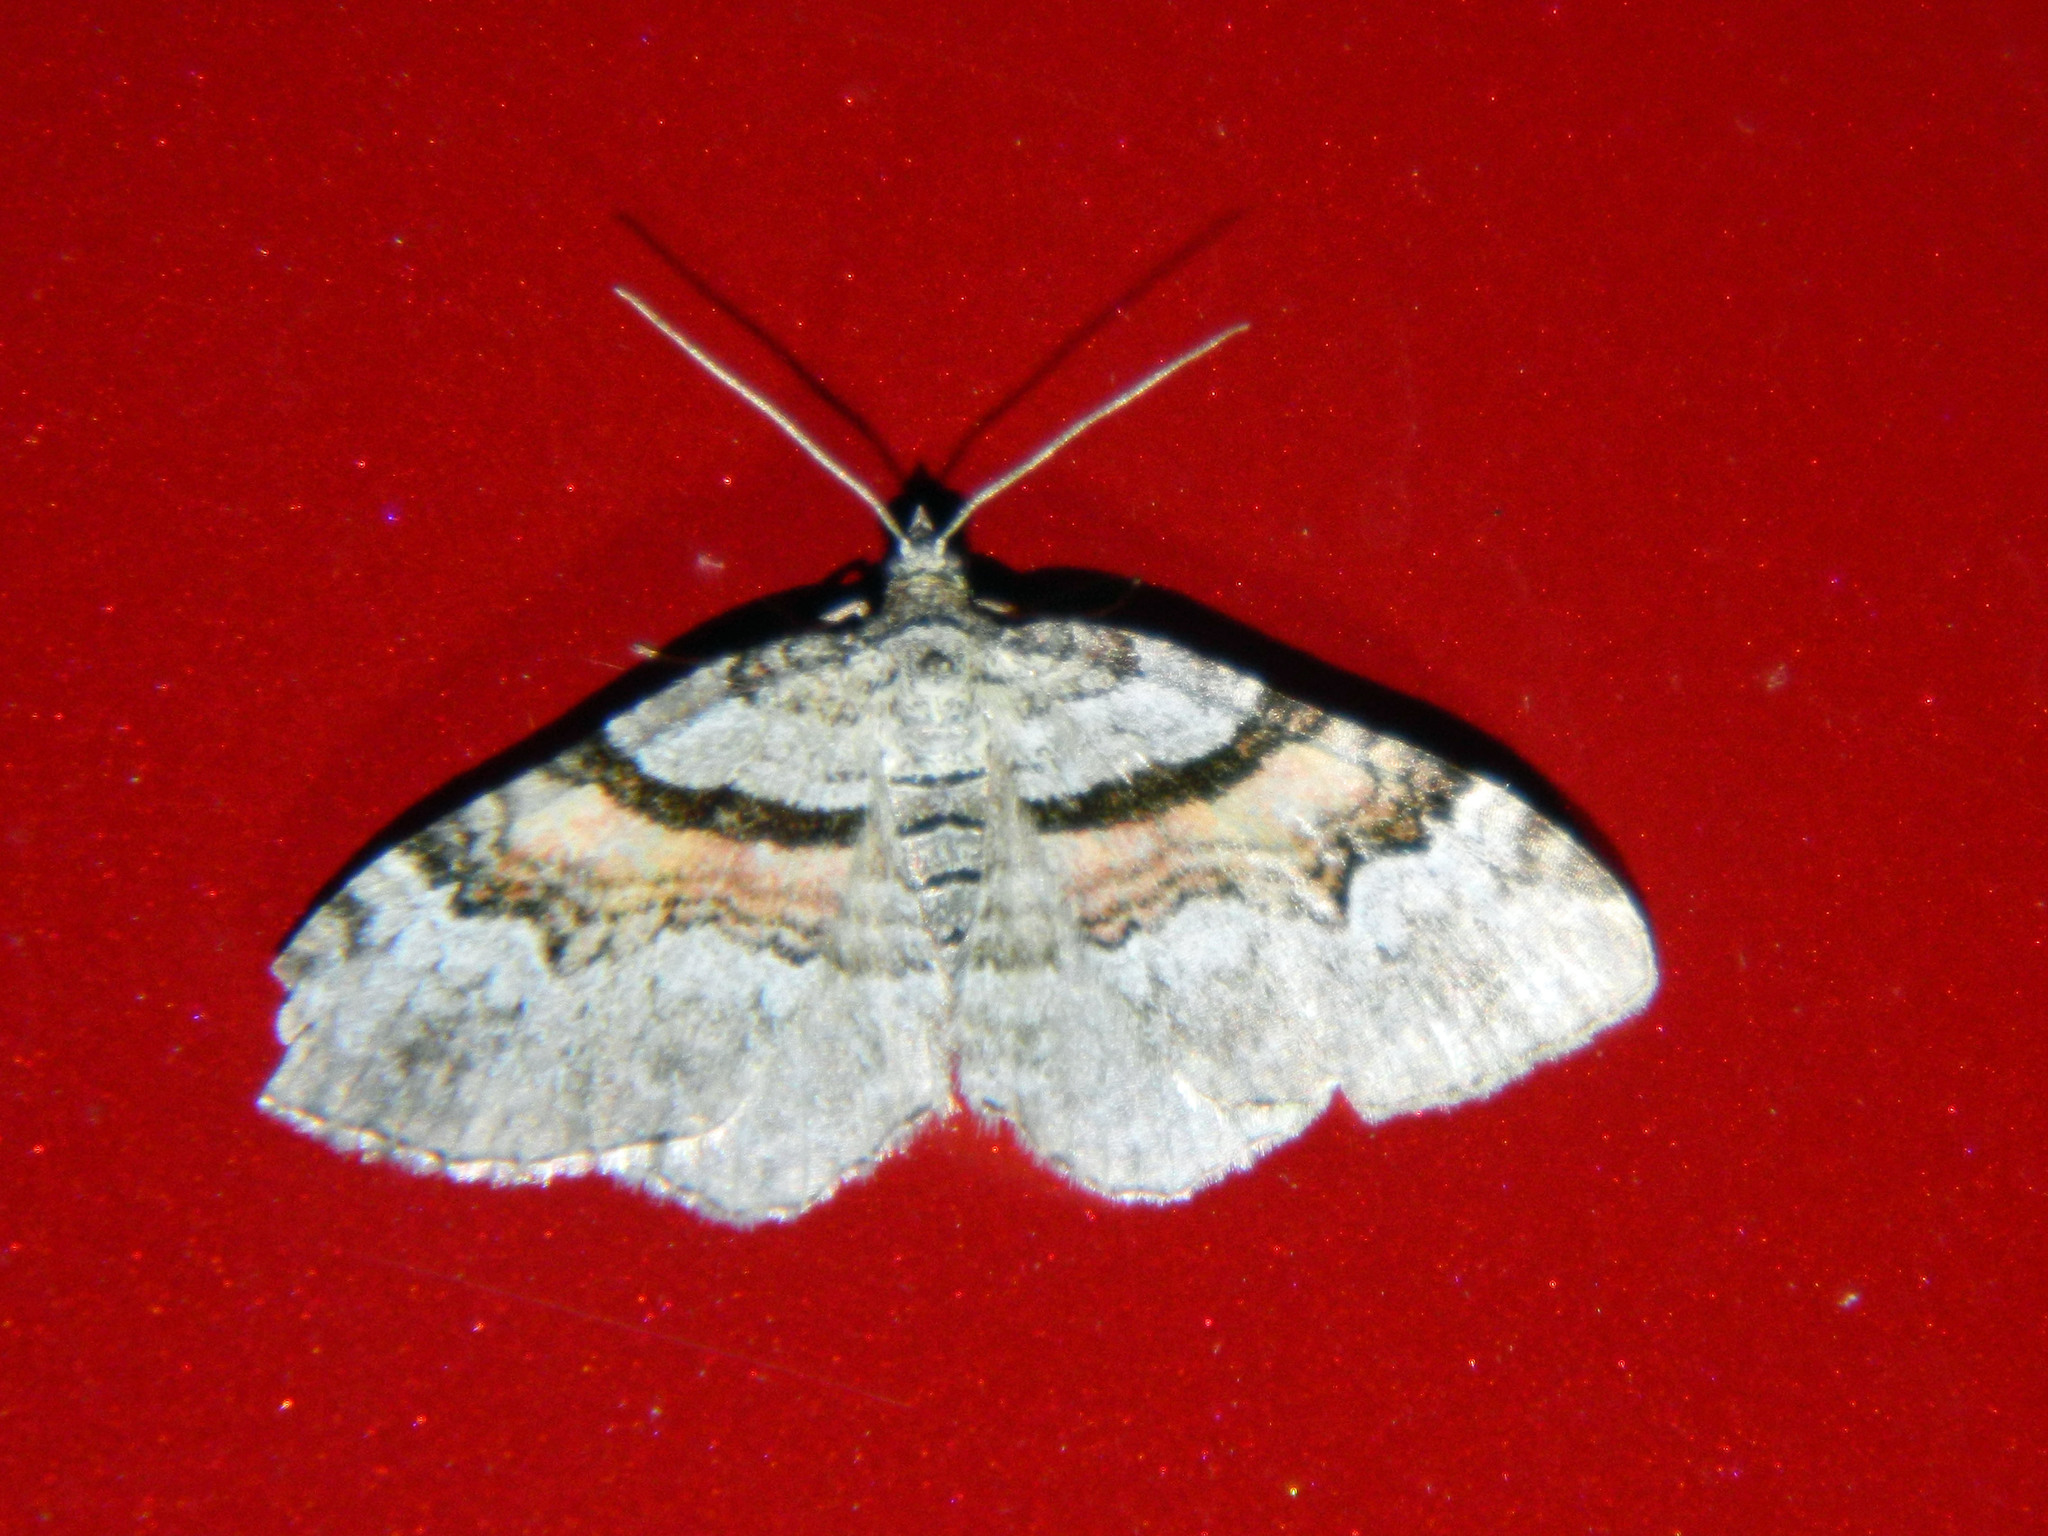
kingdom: Animalia
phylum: Arthropoda
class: Insecta
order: Lepidoptera
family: Geometridae
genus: Xanthorhoe
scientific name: Xanthorhoe packardata
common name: Packard's carpet
